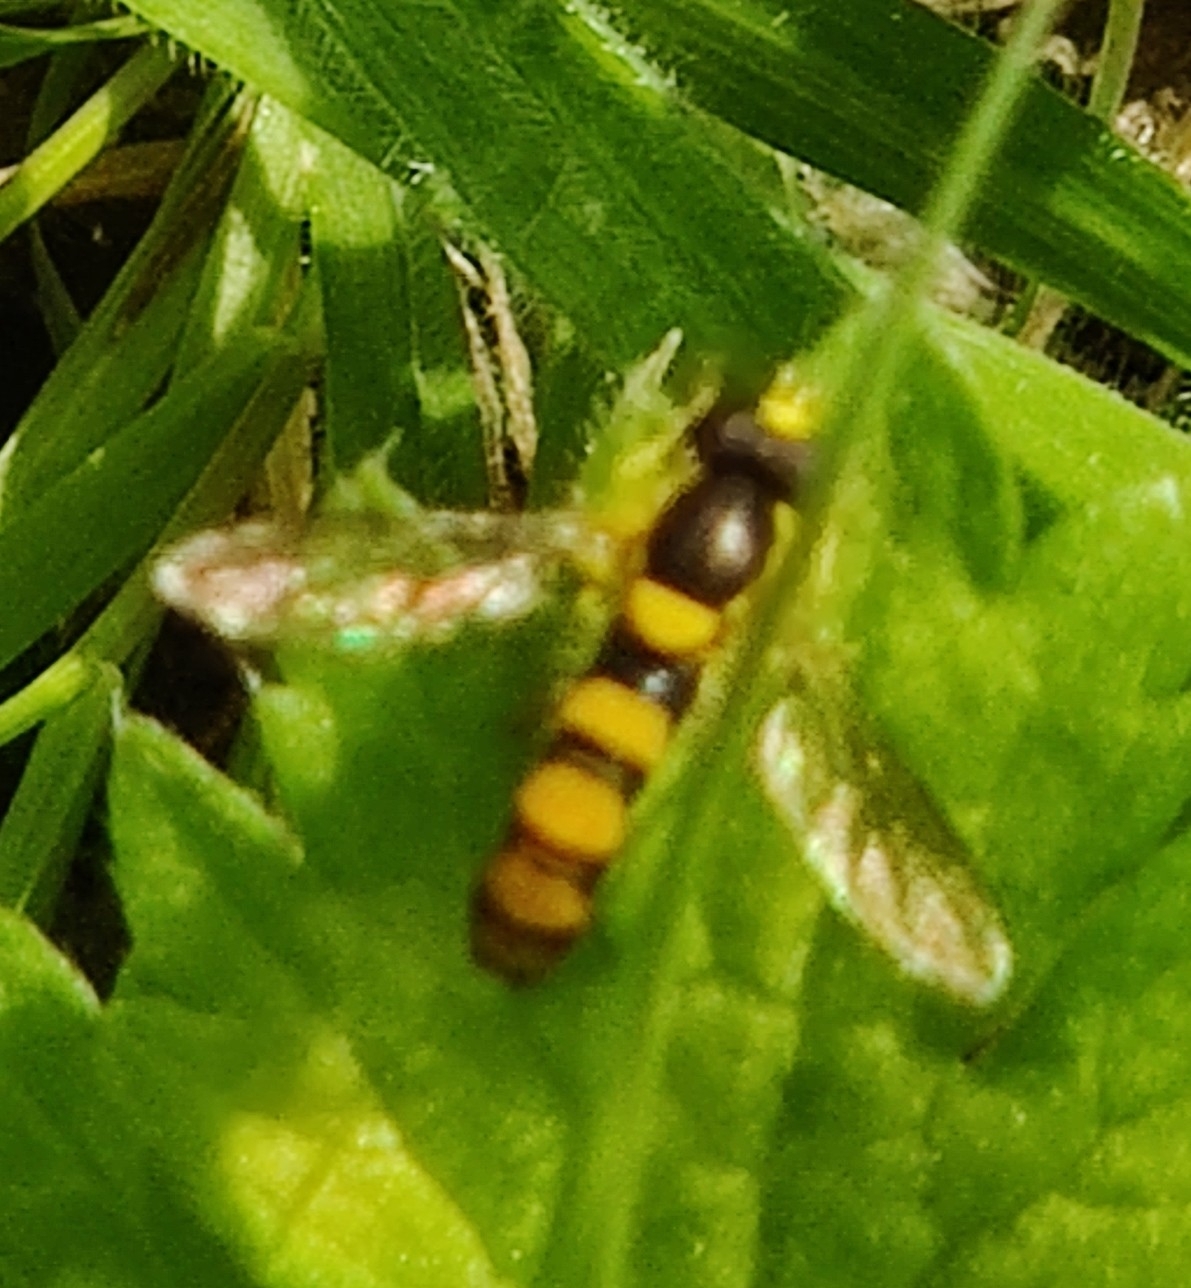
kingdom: Animalia
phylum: Arthropoda
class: Insecta
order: Diptera
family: Syrphidae
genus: Sphaerophoria
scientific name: Sphaerophoria scripta
